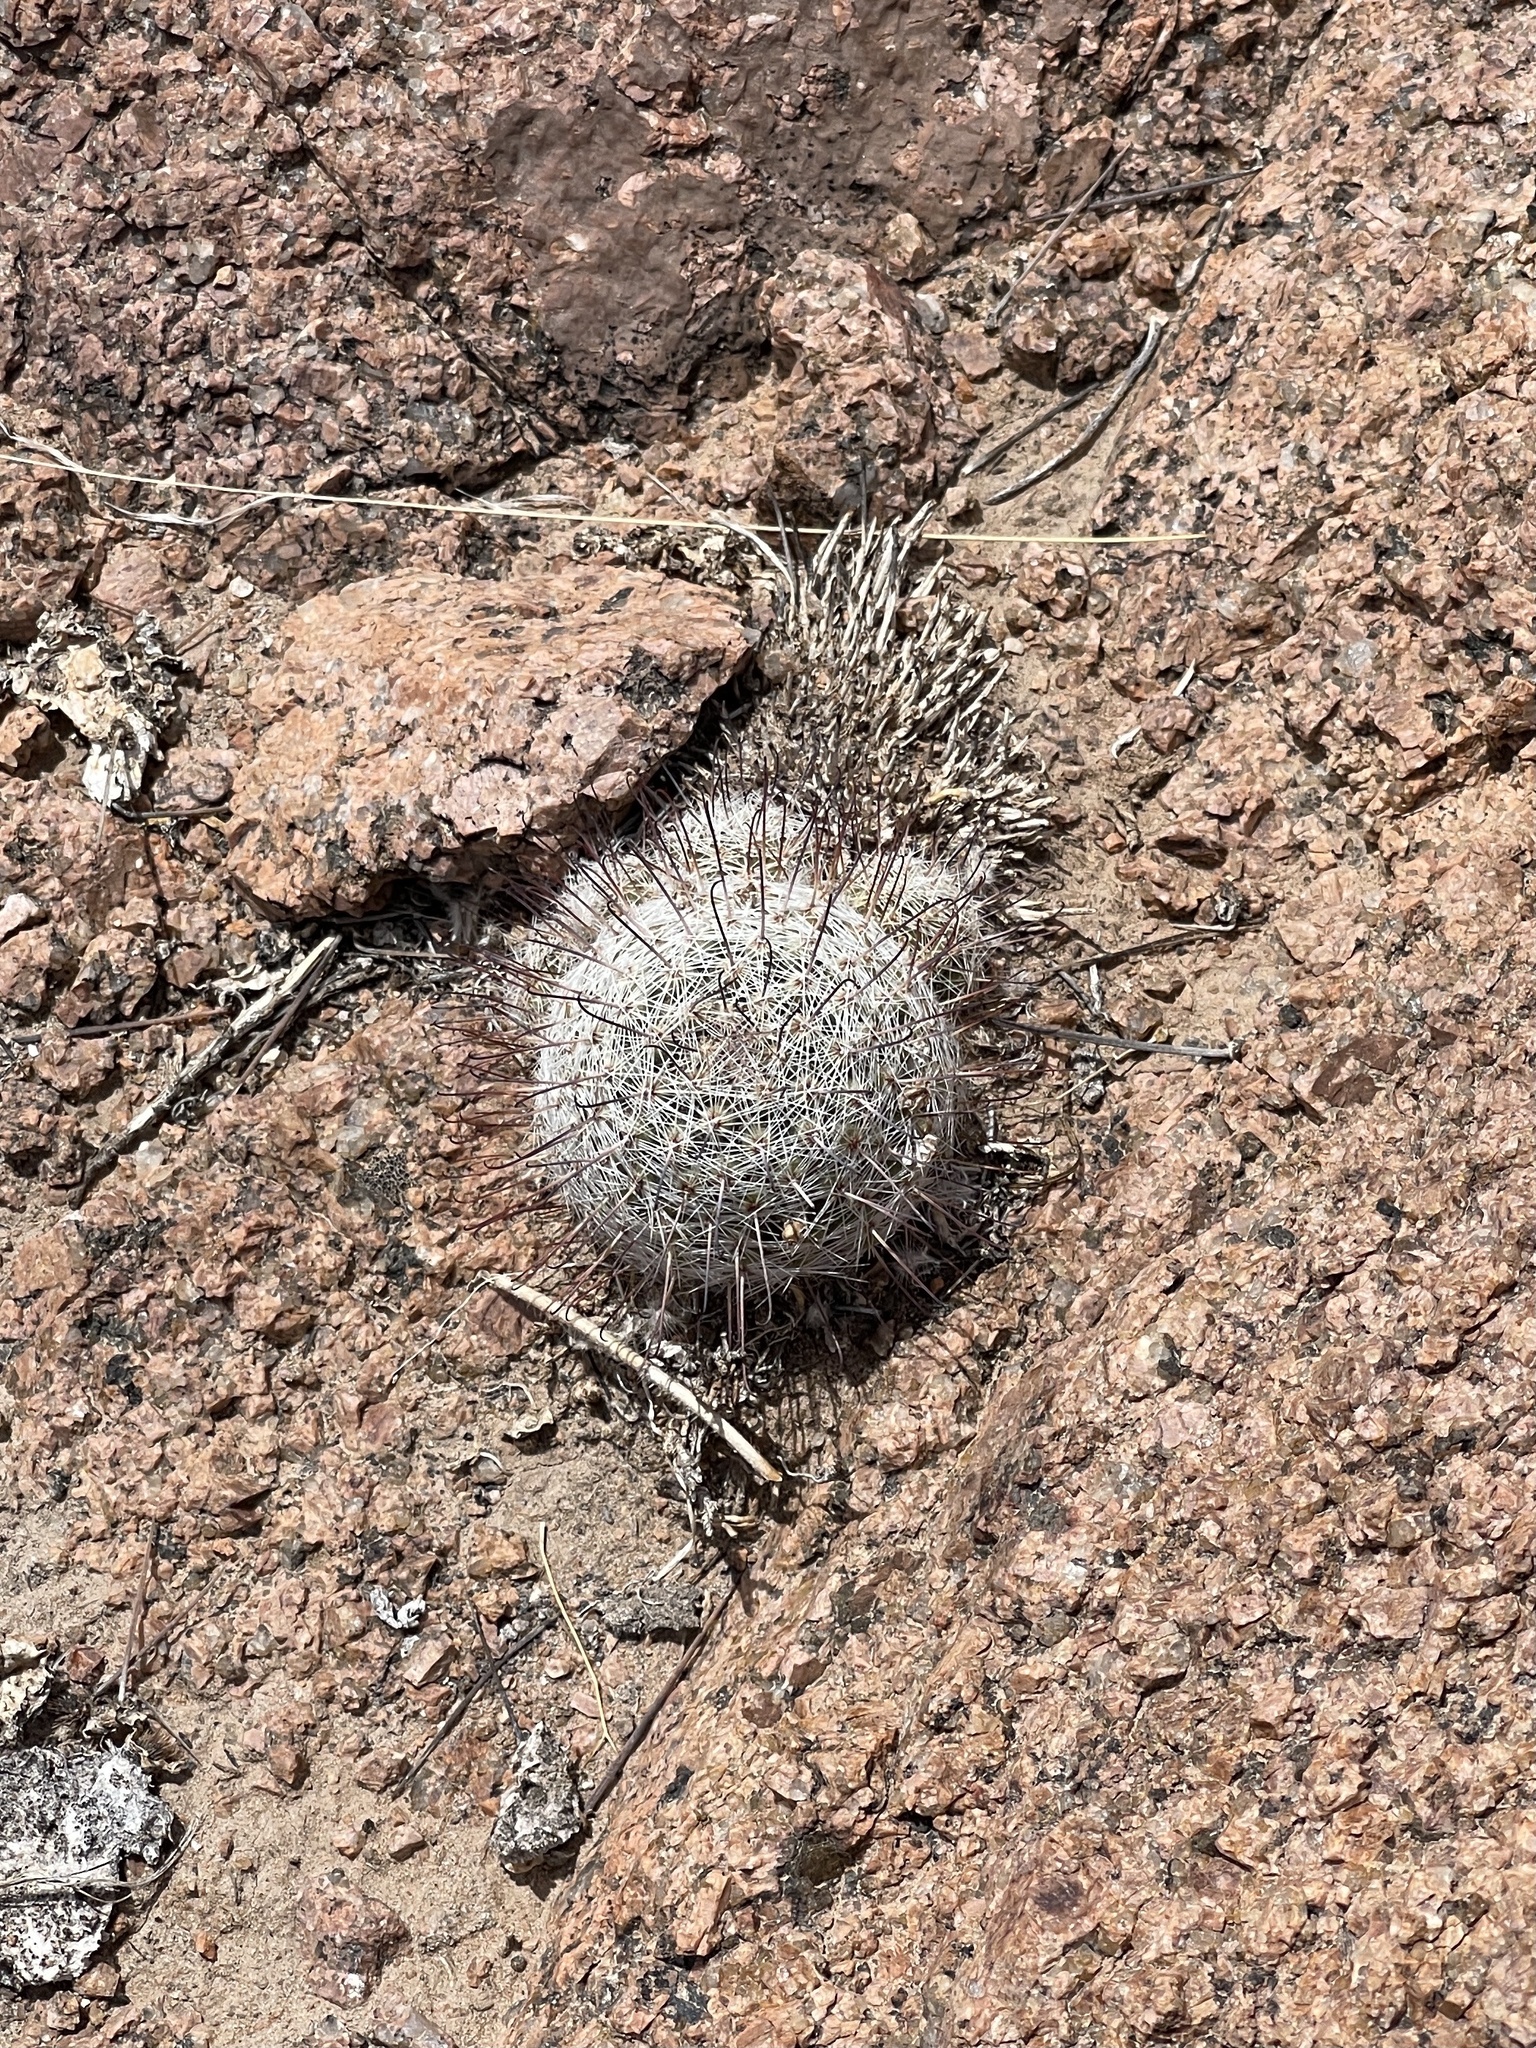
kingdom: Plantae
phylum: Tracheophyta
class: Magnoliopsida
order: Caryophyllales
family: Cactaceae
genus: Cochemiea
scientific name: Cochemiea grahamii
